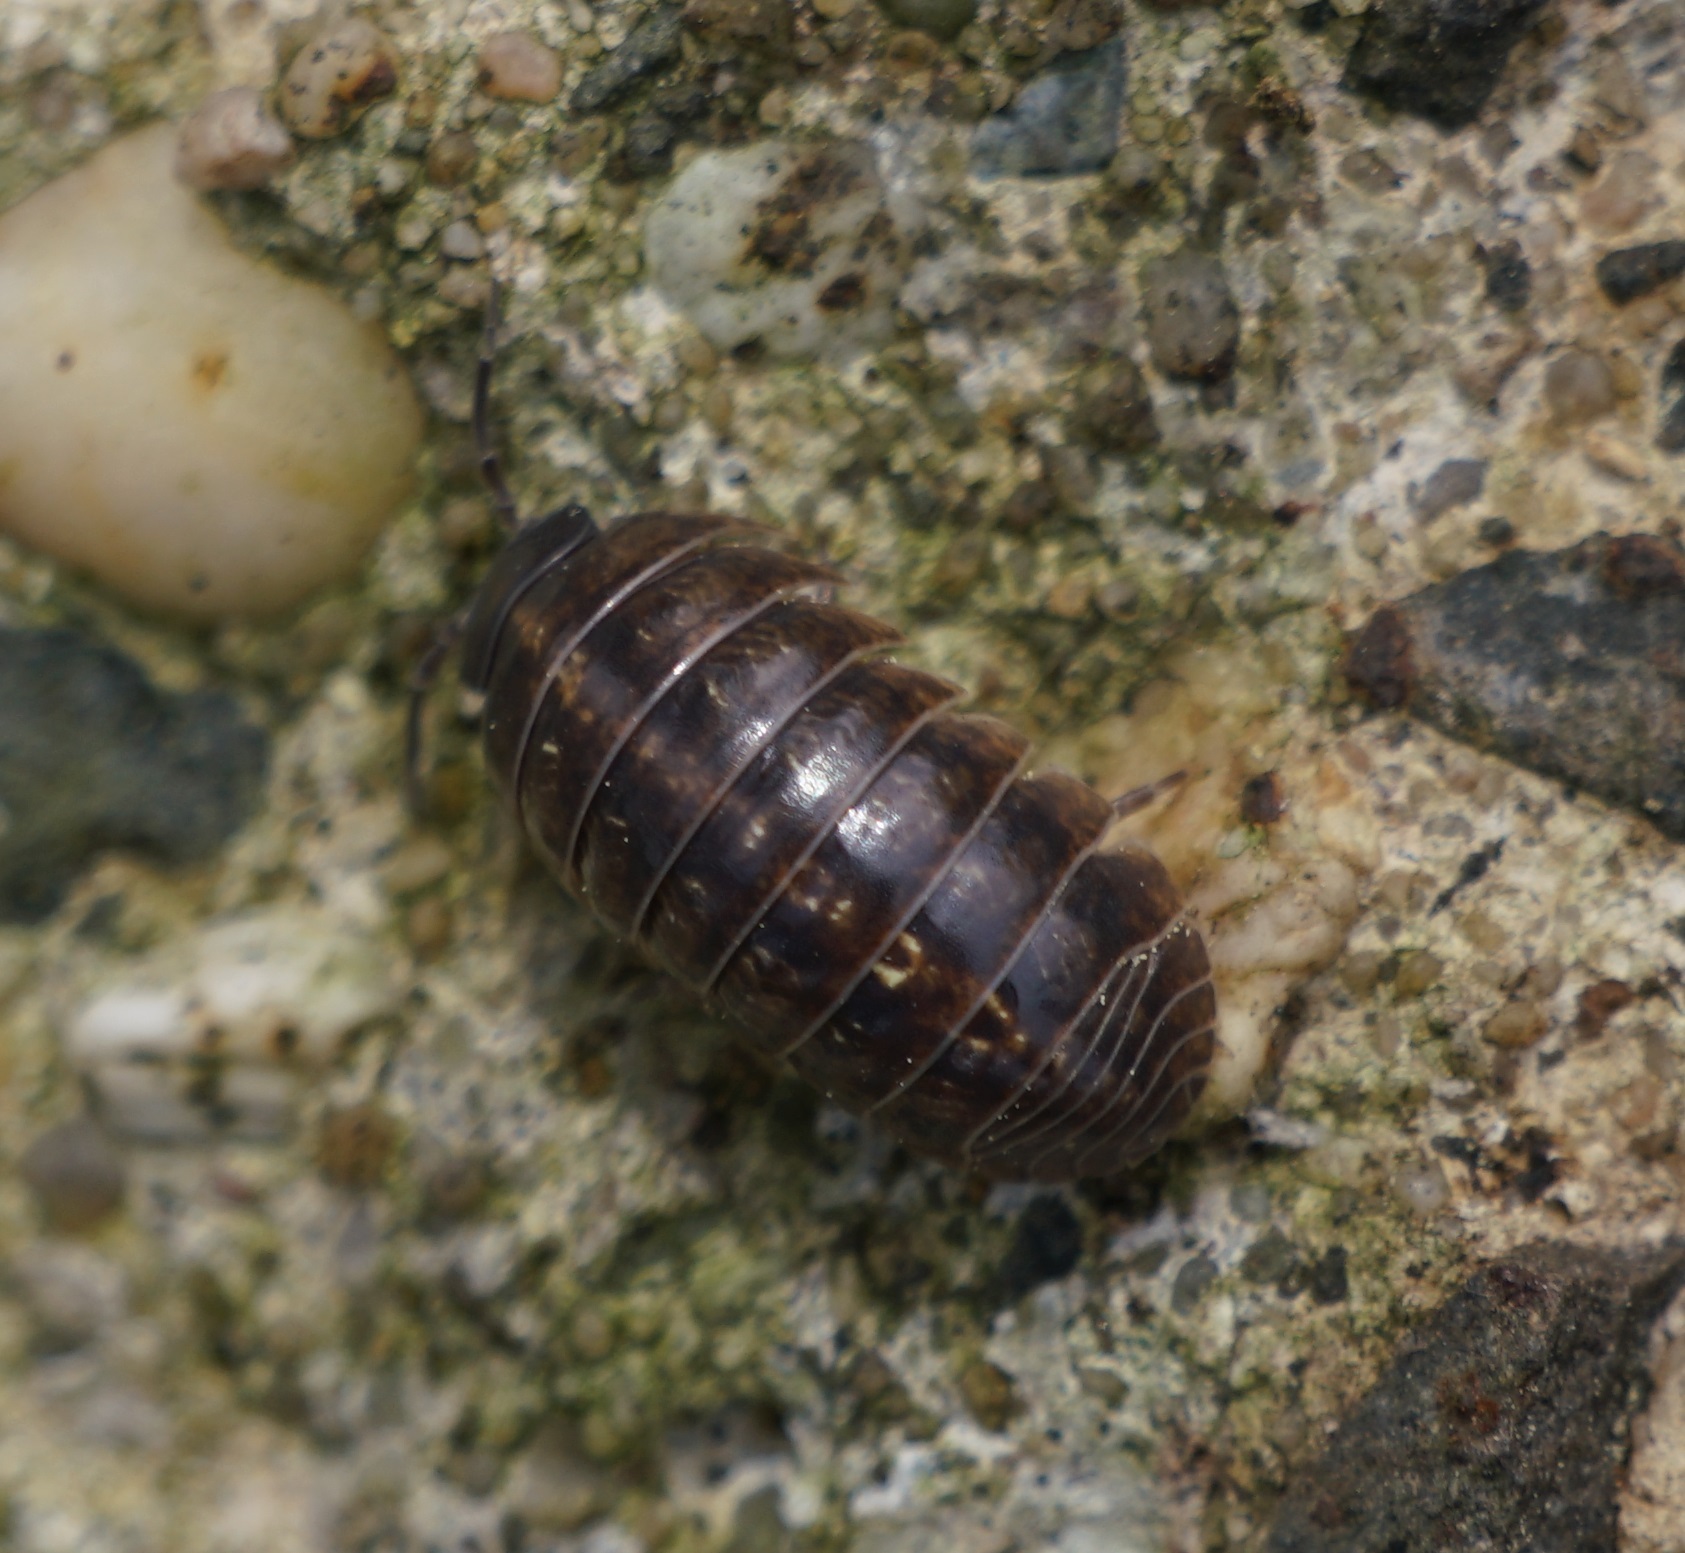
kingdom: Animalia
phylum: Arthropoda
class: Malacostraca
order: Isopoda
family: Armadillidiidae
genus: Armadillidium
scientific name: Armadillidium vulgare
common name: Common pill woodlouse
